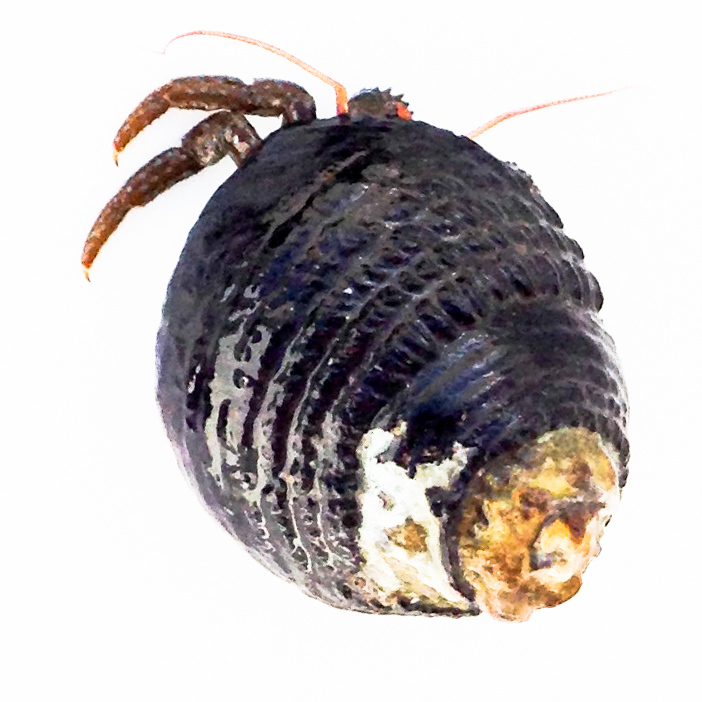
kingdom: Animalia
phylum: Mollusca
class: Gastropoda
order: Trochida
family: Tegulidae
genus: Tegula
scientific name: Tegula funebralis
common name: Black tegula
